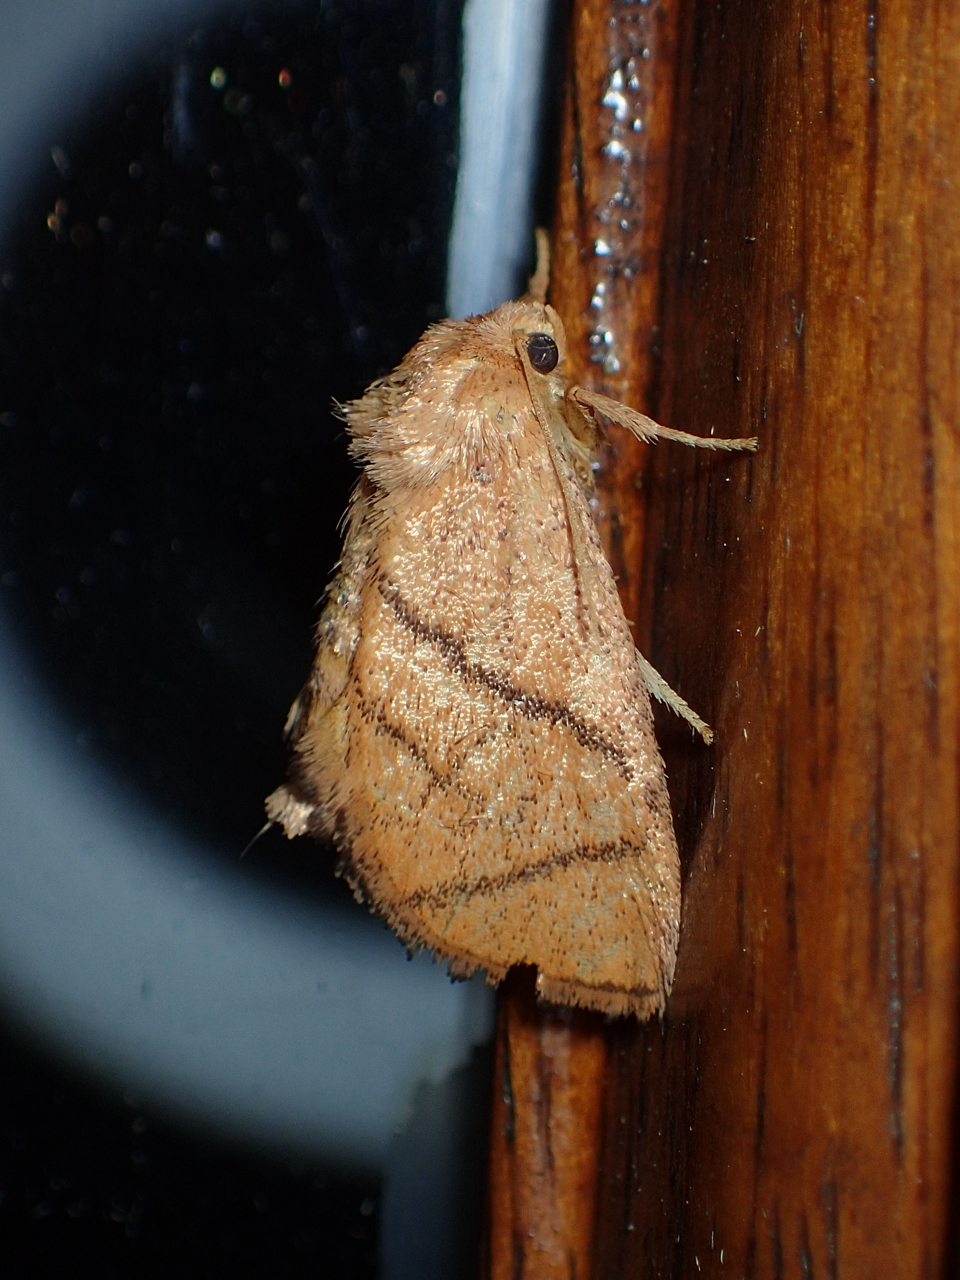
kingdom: Animalia
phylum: Arthropoda
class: Insecta
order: Lepidoptera
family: Limacodidae
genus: Apoda
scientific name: Apoda y-inversa
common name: Yellow-collared slug moth
